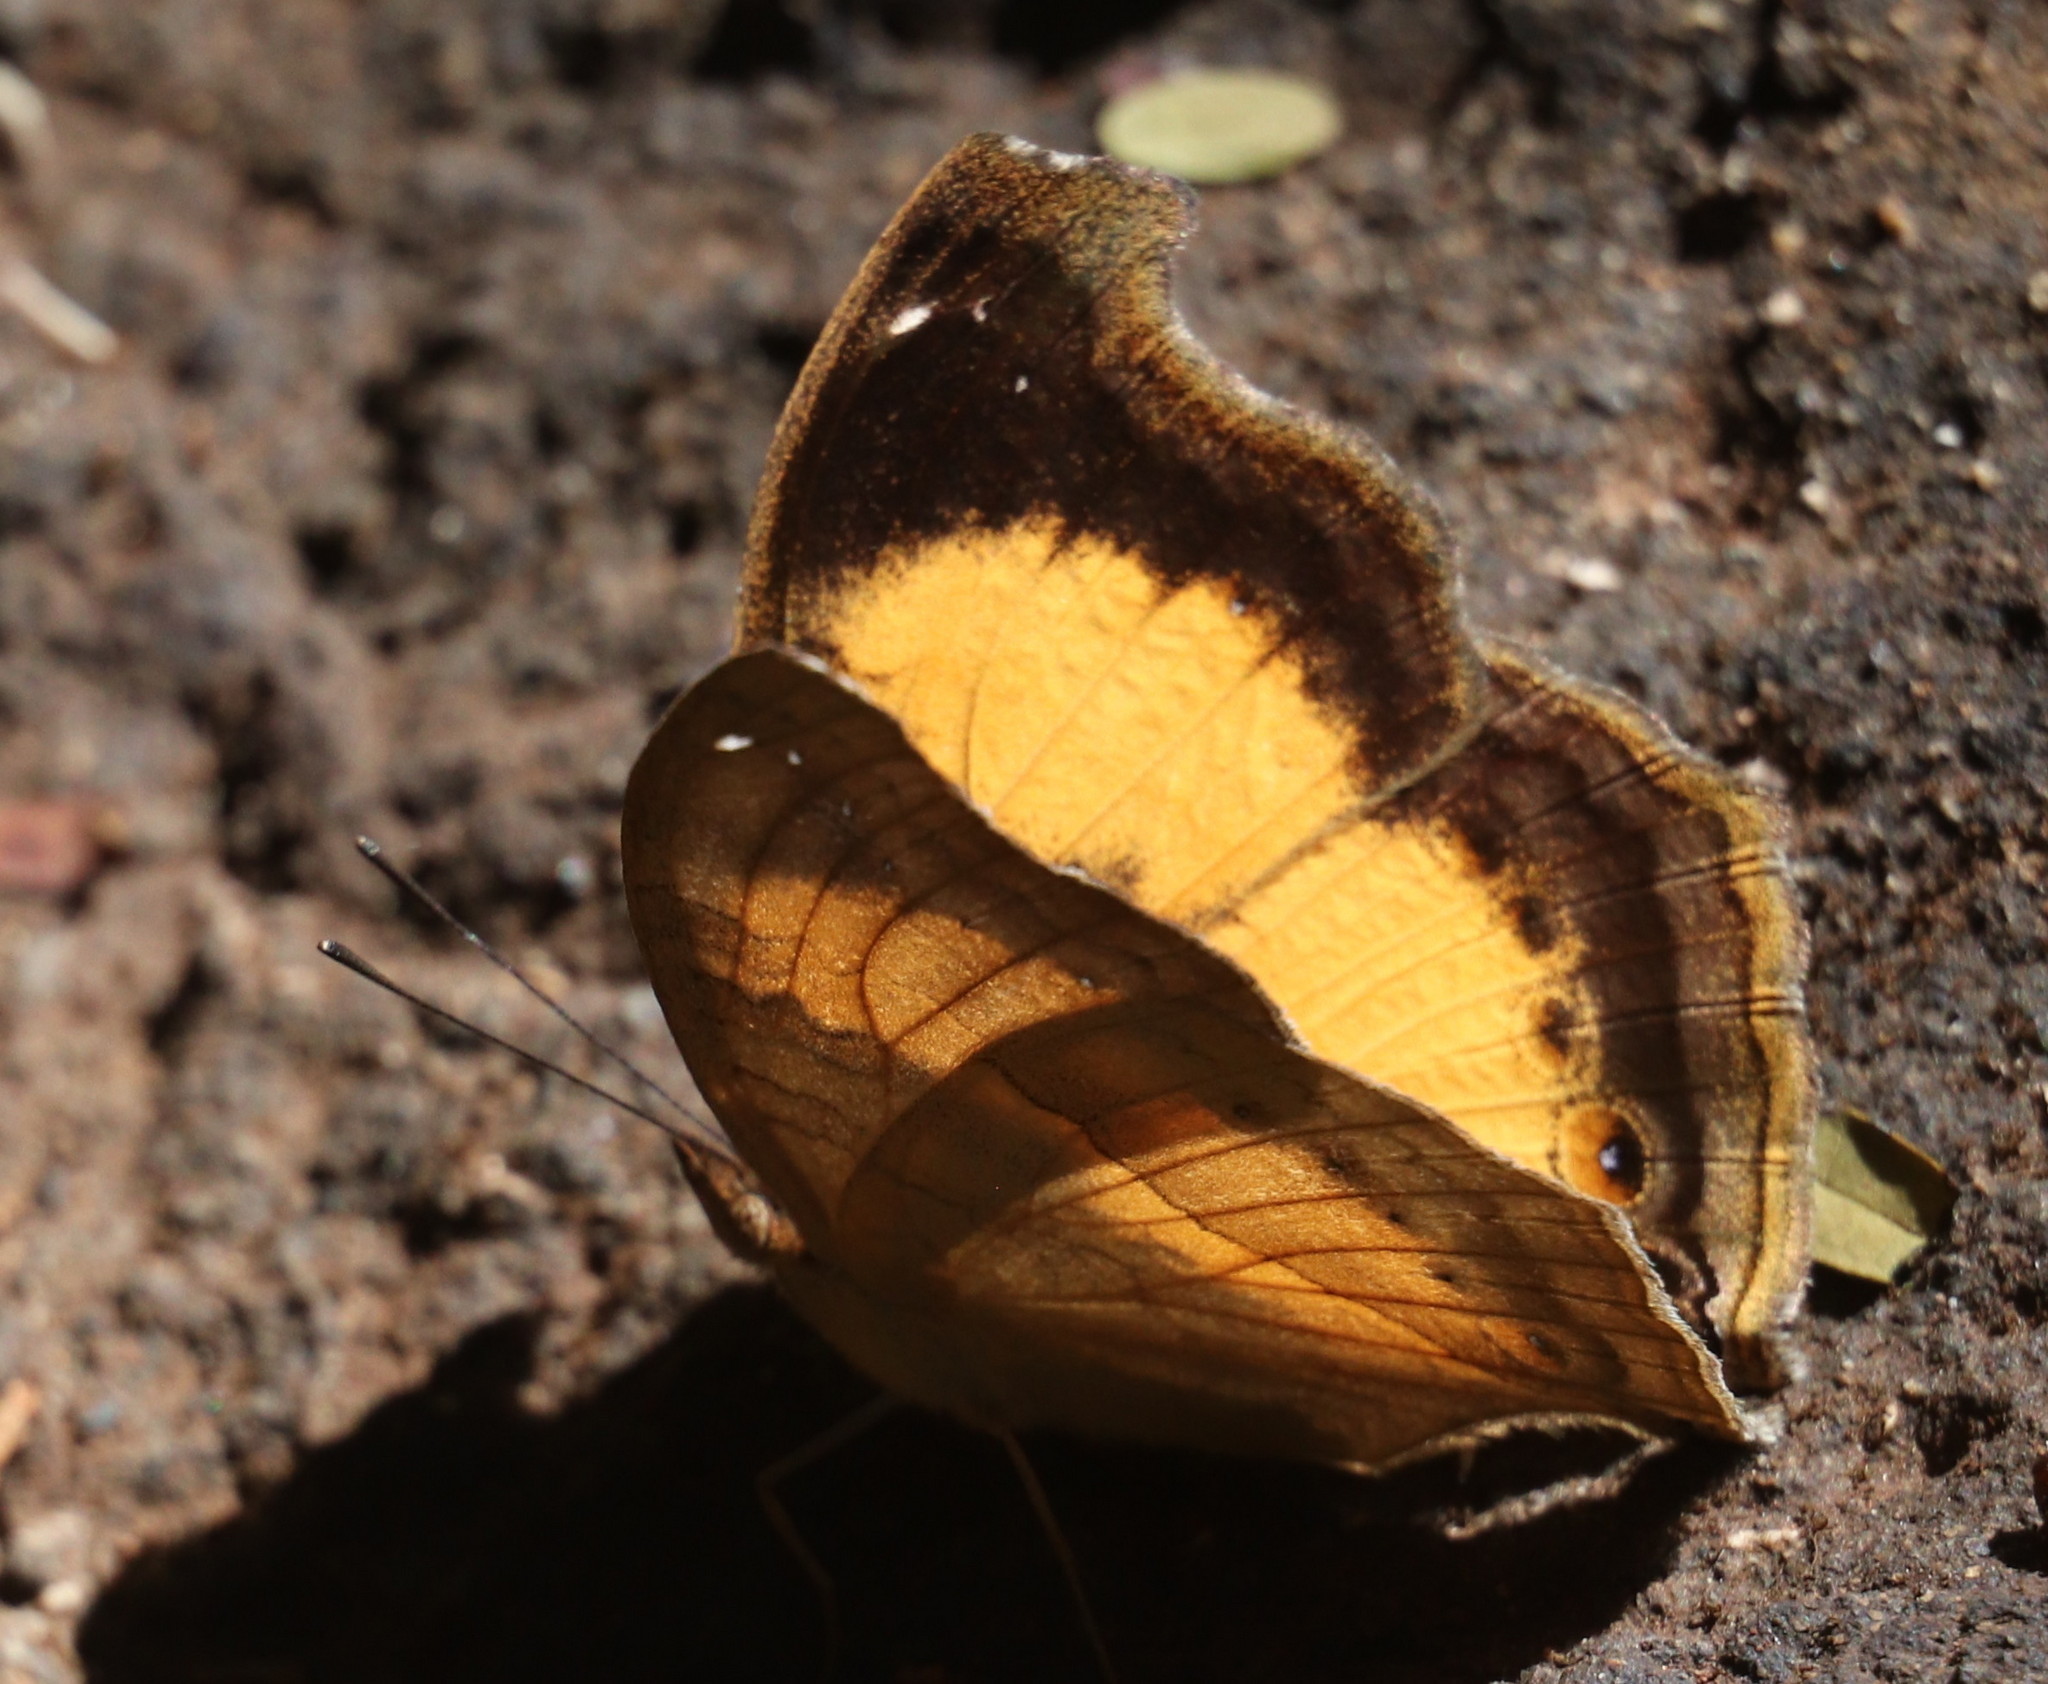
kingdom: Animalia
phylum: Arthropoda
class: Insecta
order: Lepidoptera
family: Nymphalidae
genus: Junonia
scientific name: Junonia terea
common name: Soldier pansy
